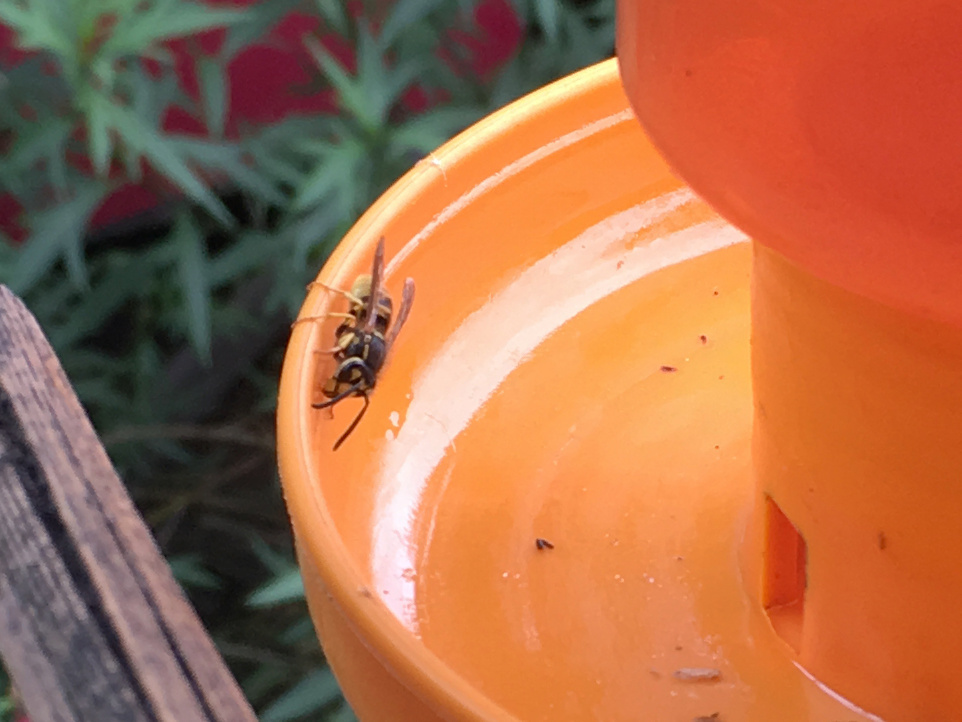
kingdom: Animalia
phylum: Arthropoda
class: Insecta
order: Hymenoptera
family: Vespidae
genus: Vespula
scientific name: Vespula germanica
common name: German wasp
